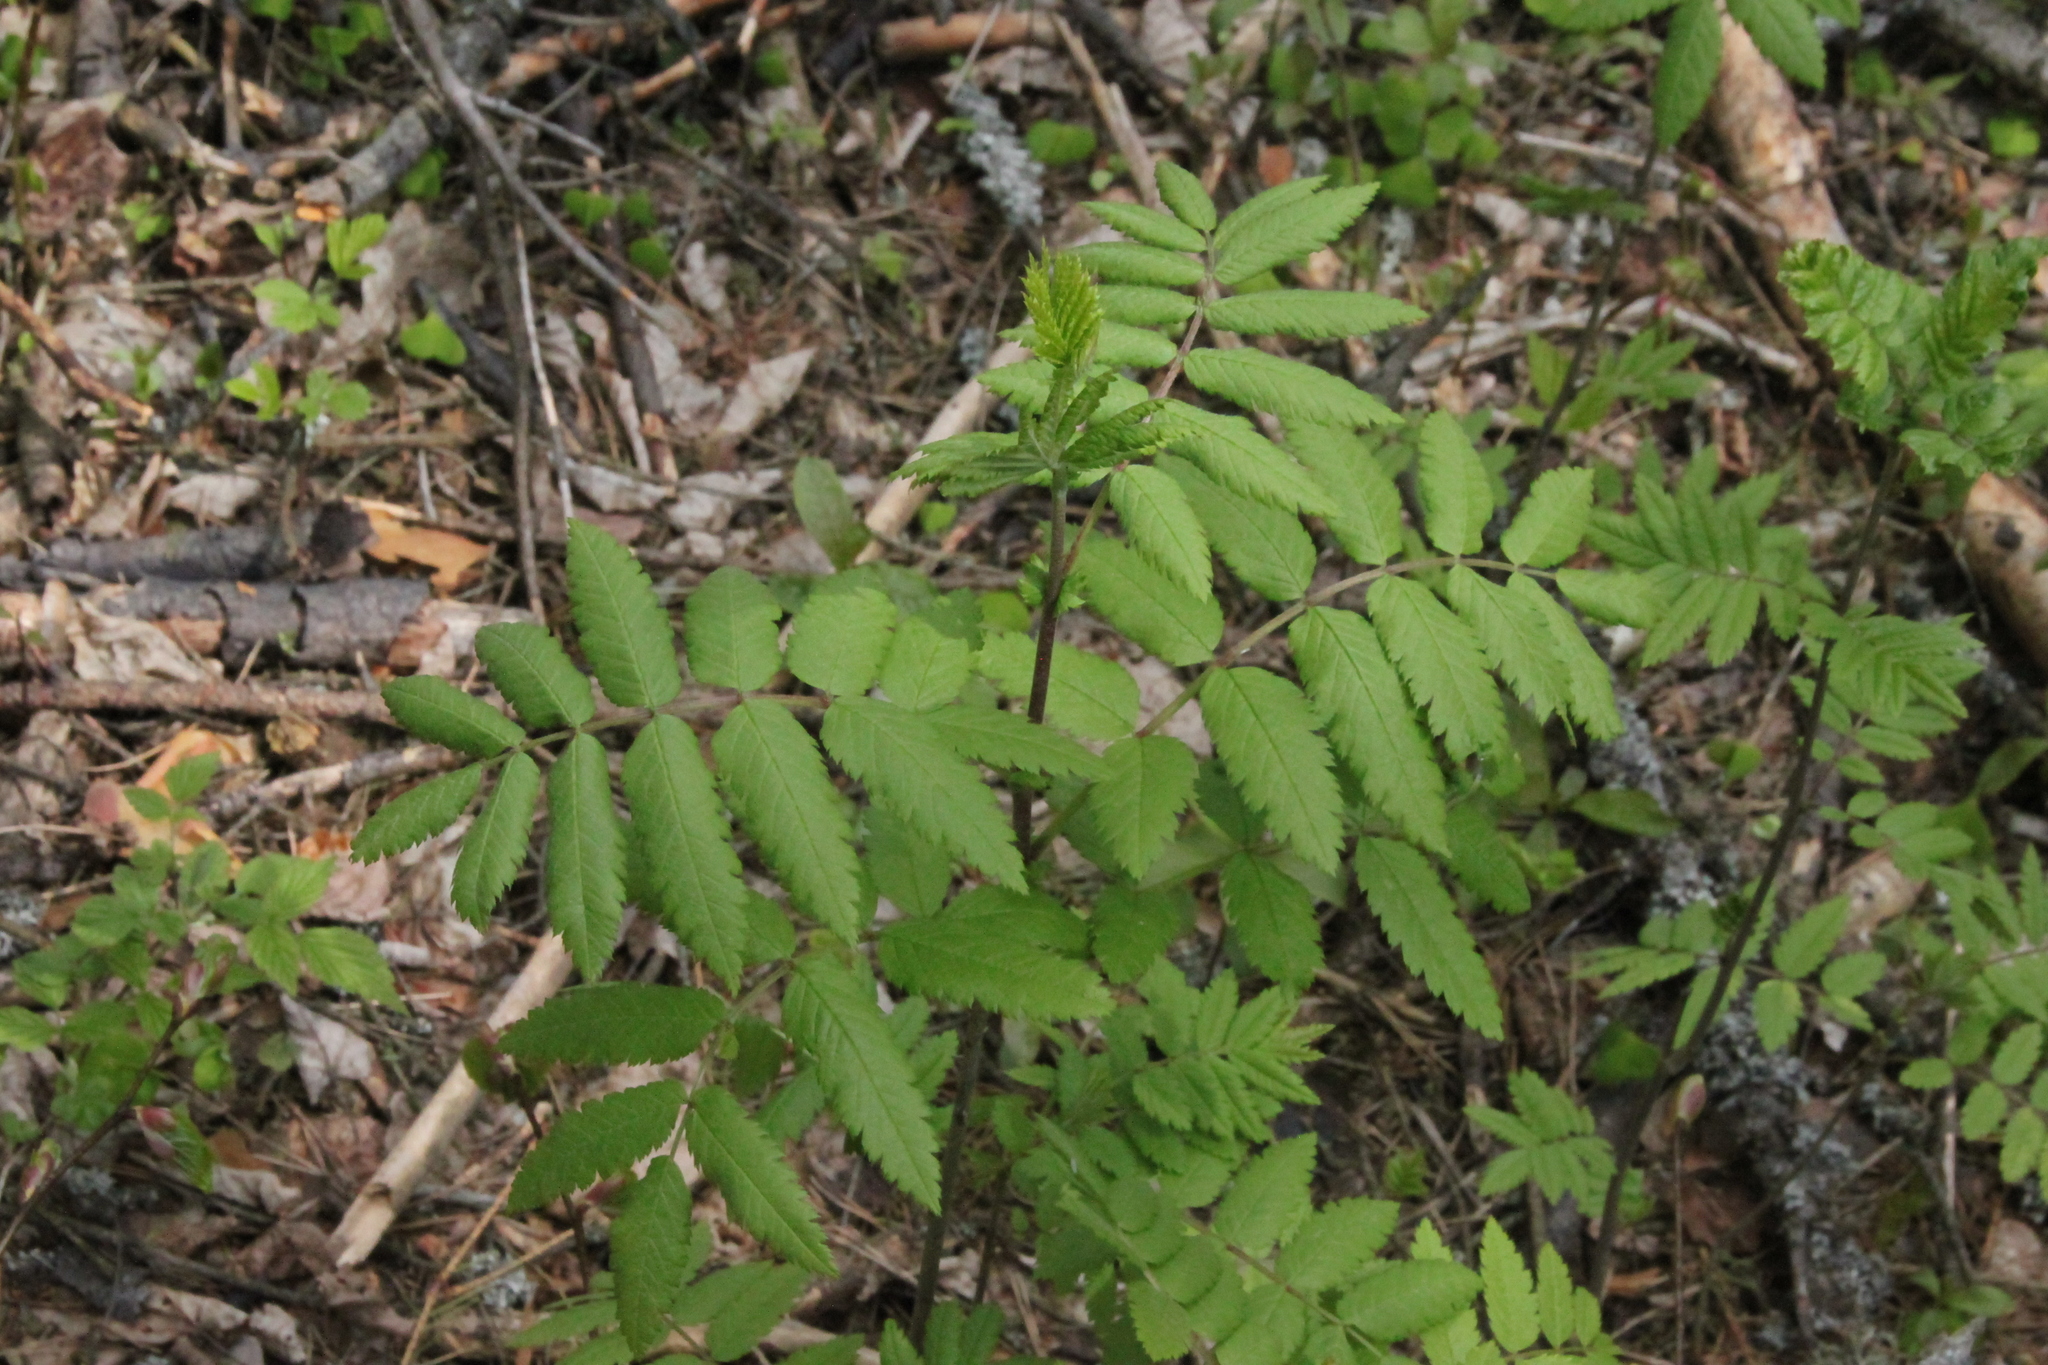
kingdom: Plantae
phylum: Tracheophyta
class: Magnoliopsida
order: Rosales
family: Rosaceae
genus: Sorbus
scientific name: Sorbus aucuparia
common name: Rowan
